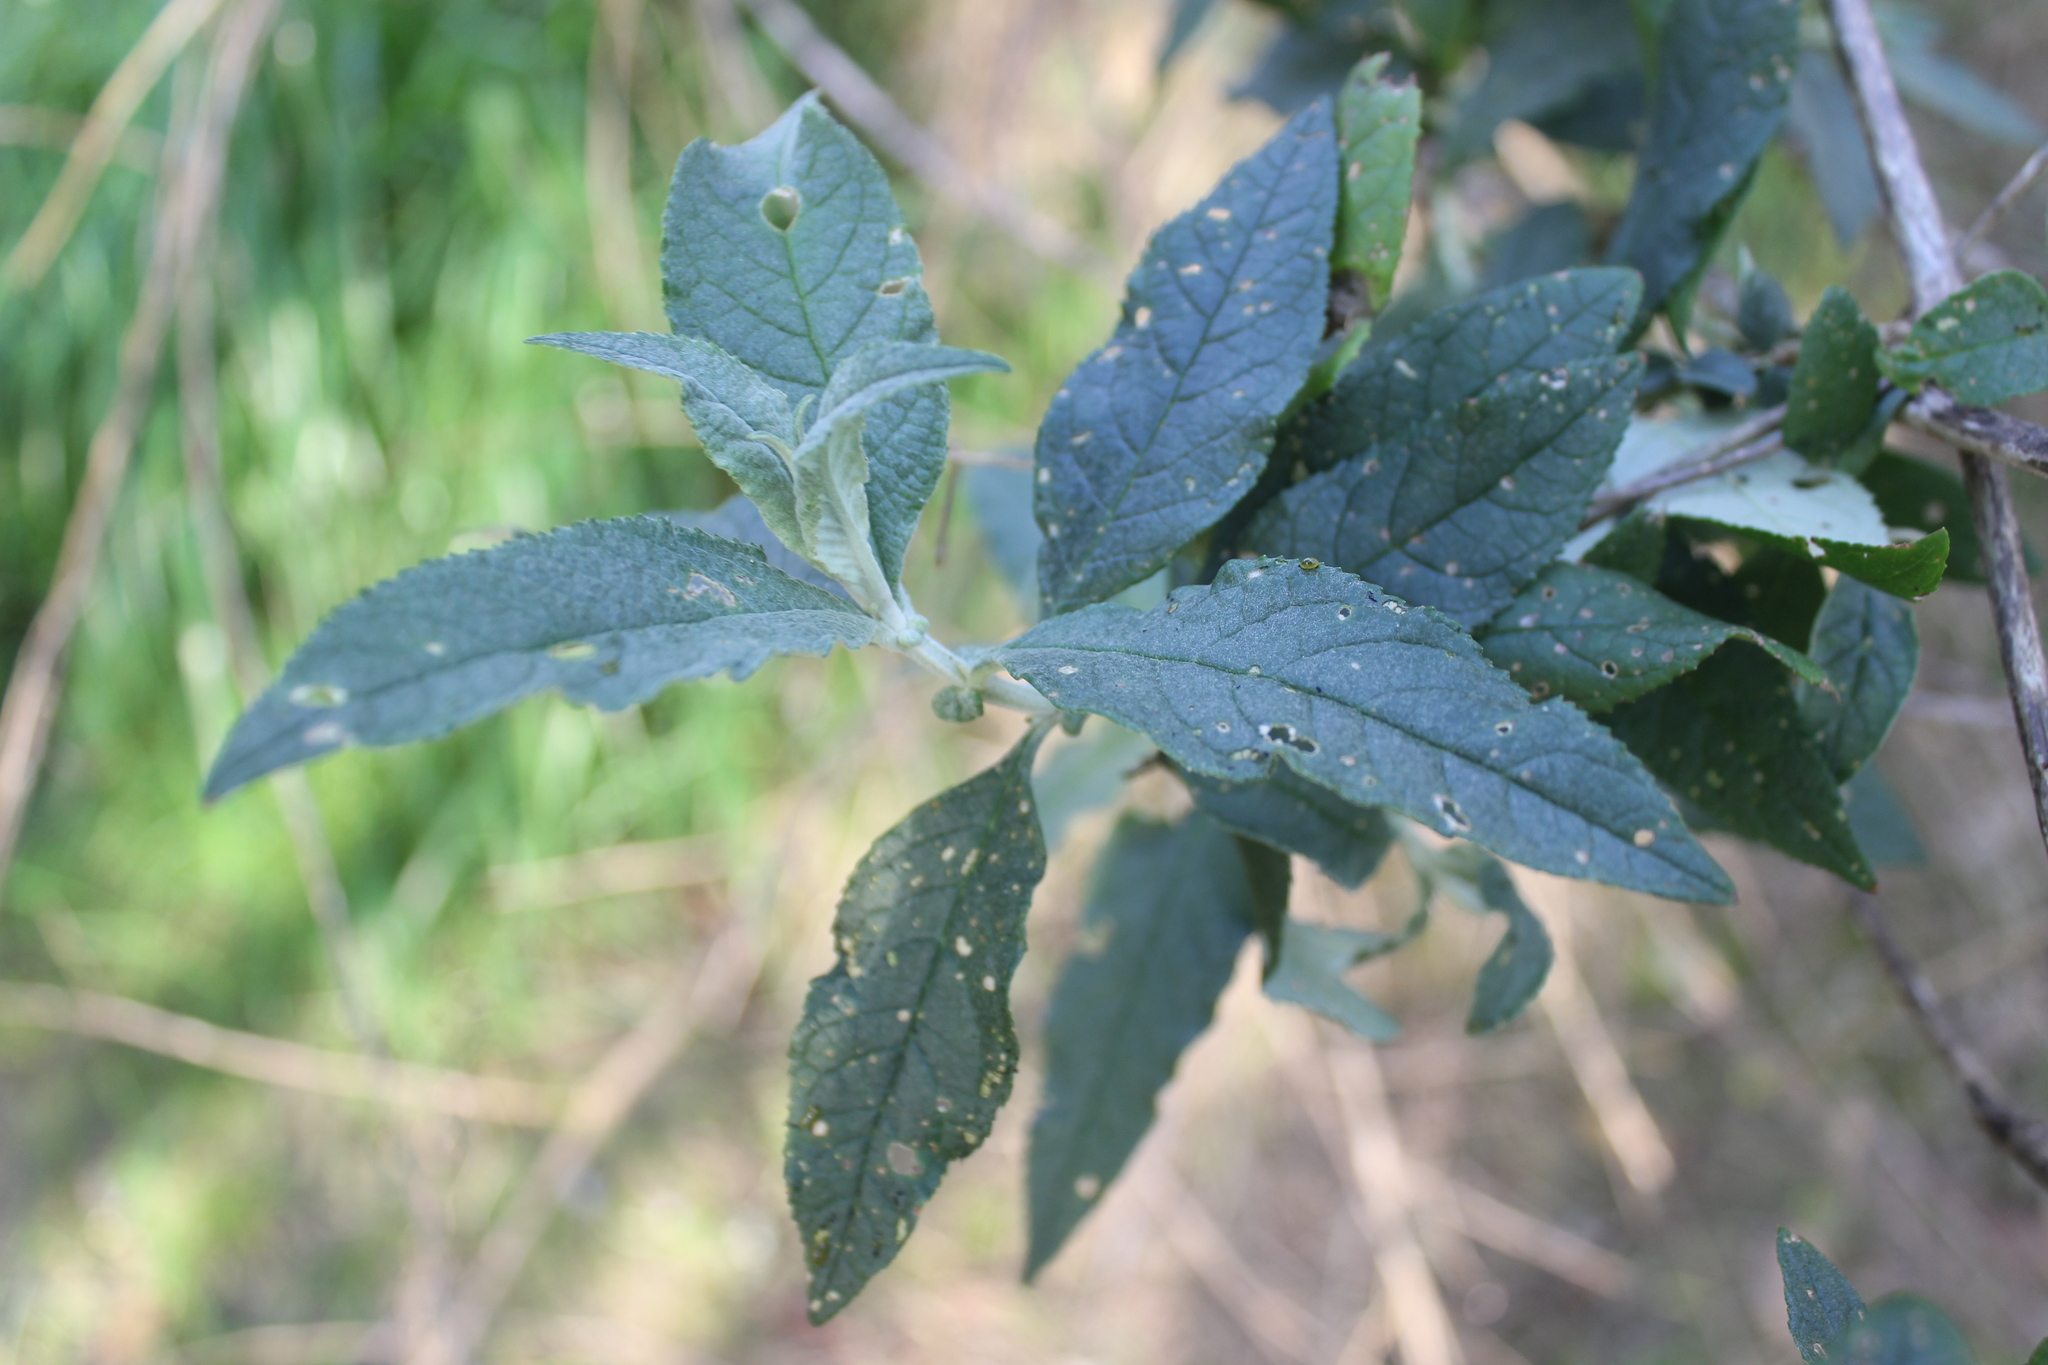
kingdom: Plantae
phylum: Tracheophyta
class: Magnoliopsida
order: Lamiales
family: Scrophulariaceae
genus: Buddleja
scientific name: Buddleja davidii
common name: Butterfly-bush
